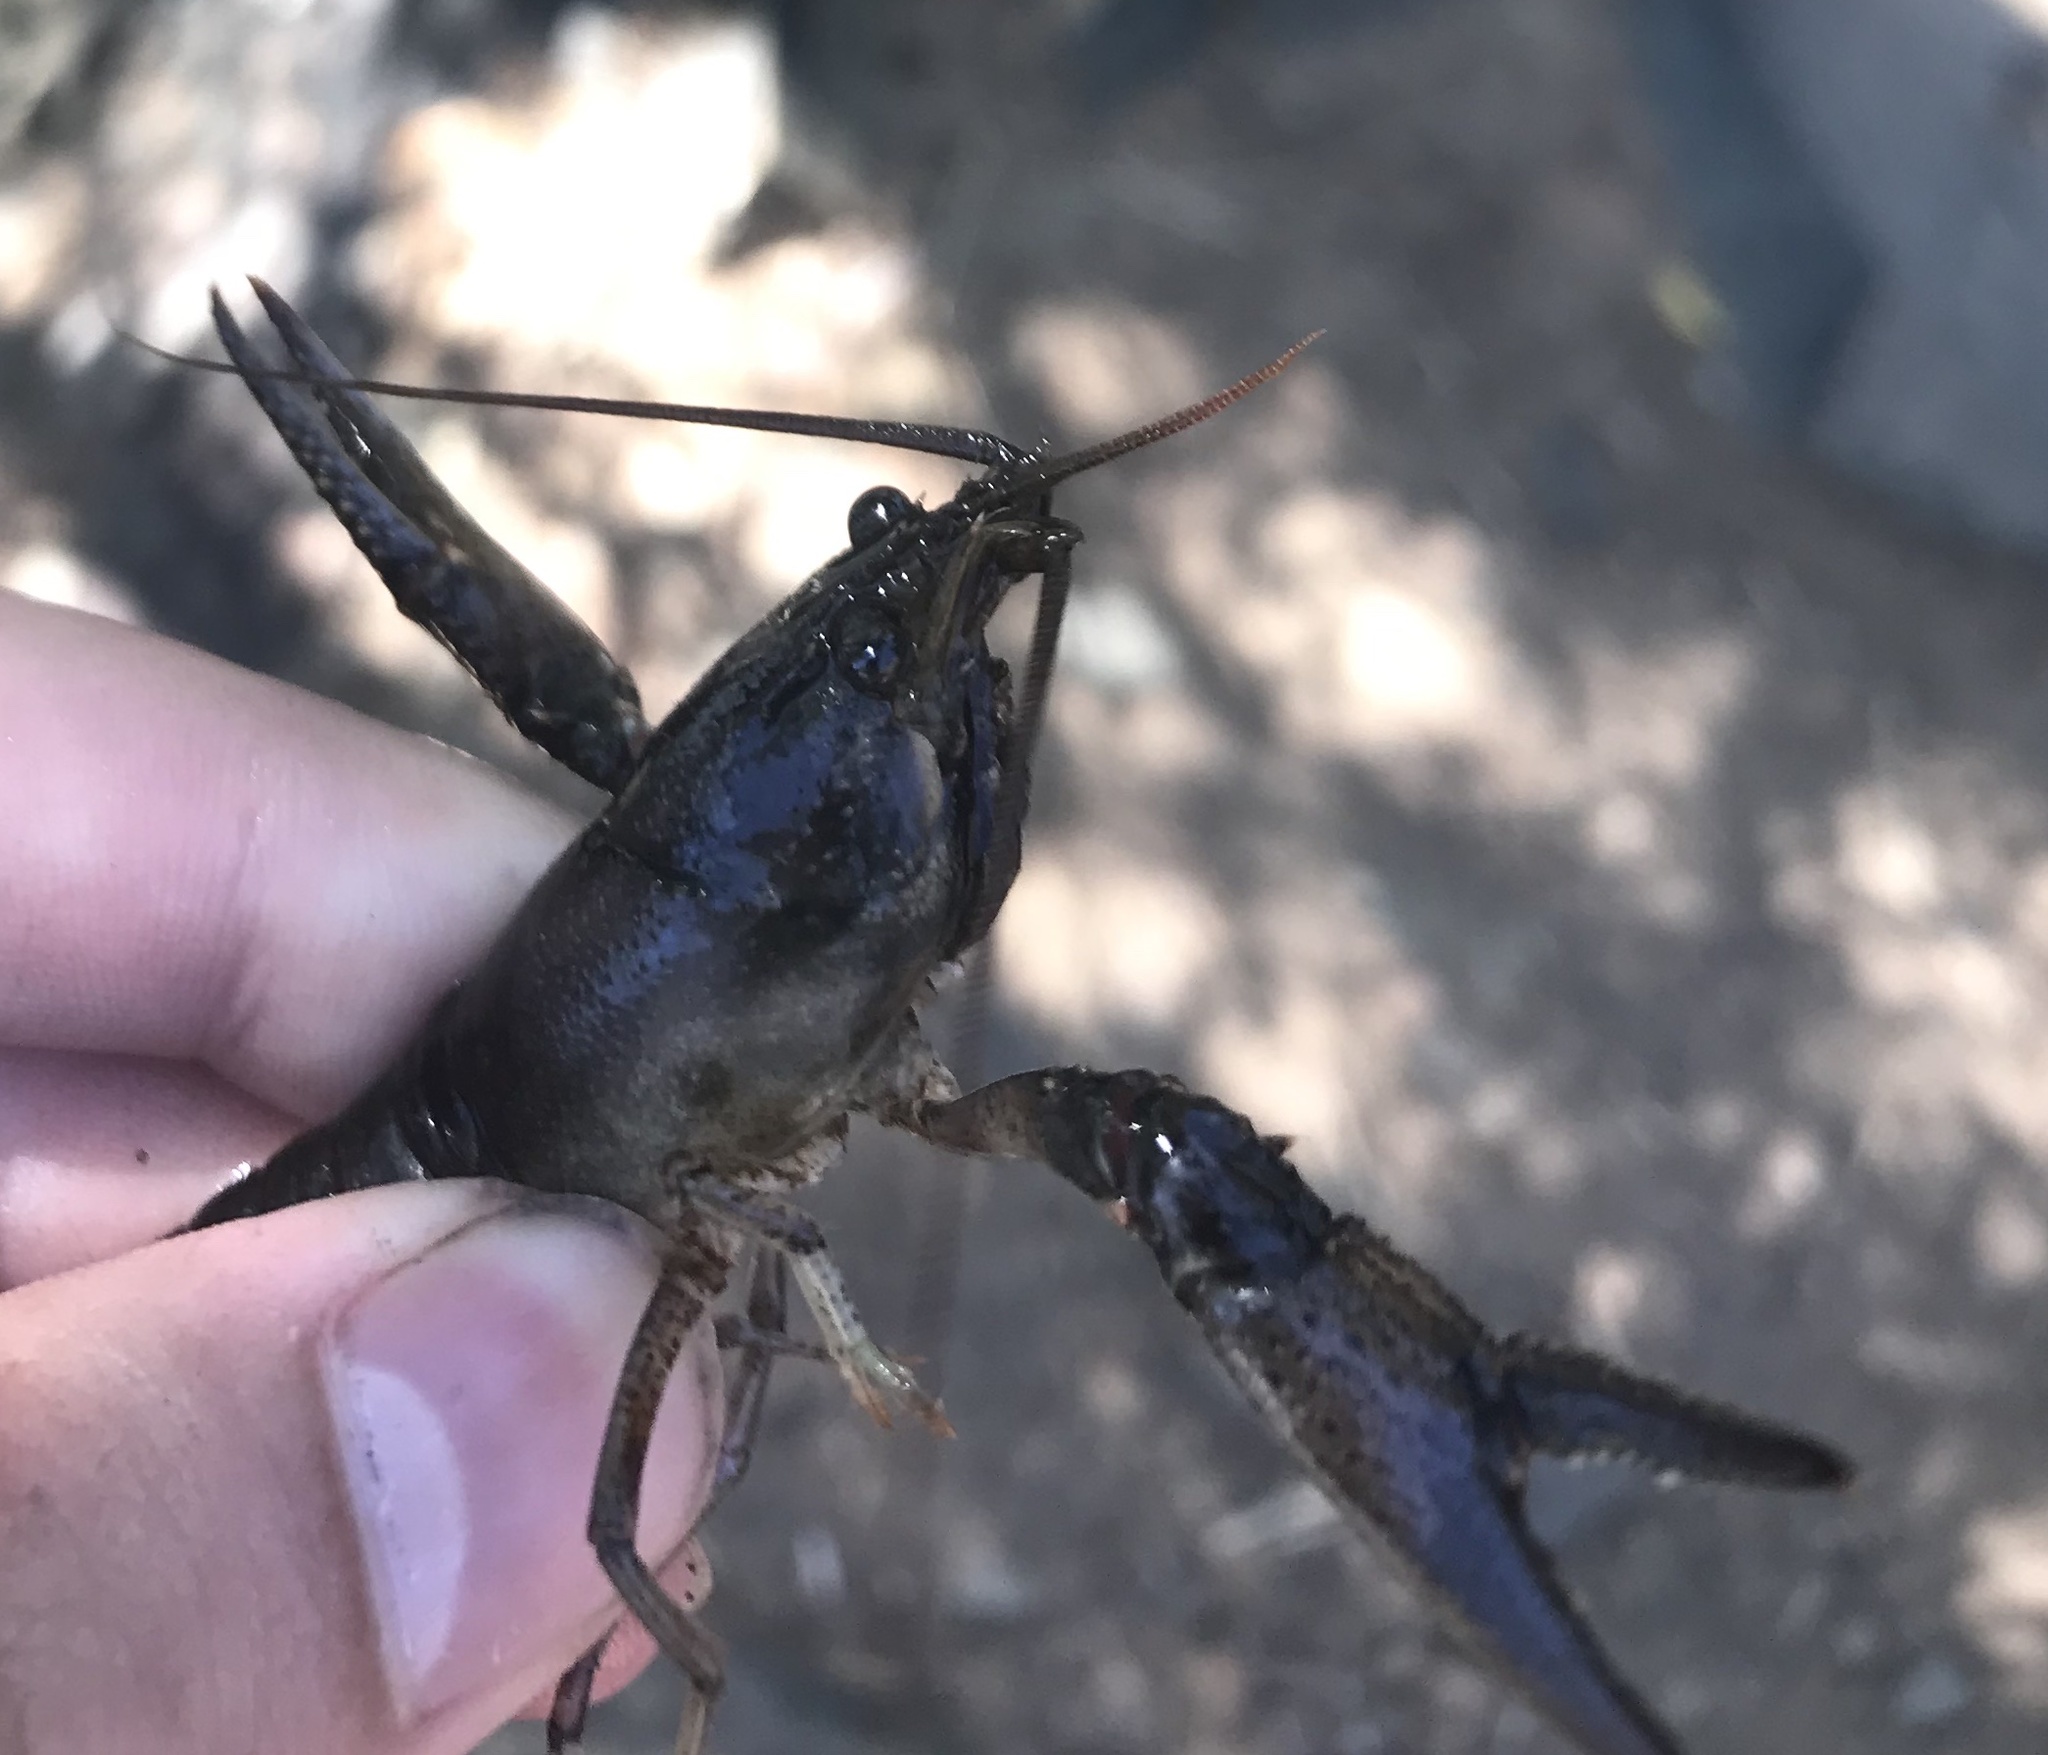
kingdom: Animalia
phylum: Arthropoda
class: Malacostraca
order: Decapoda
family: Cambaridae
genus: Faxonius
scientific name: Faxonius virilis
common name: Virile crayfish
